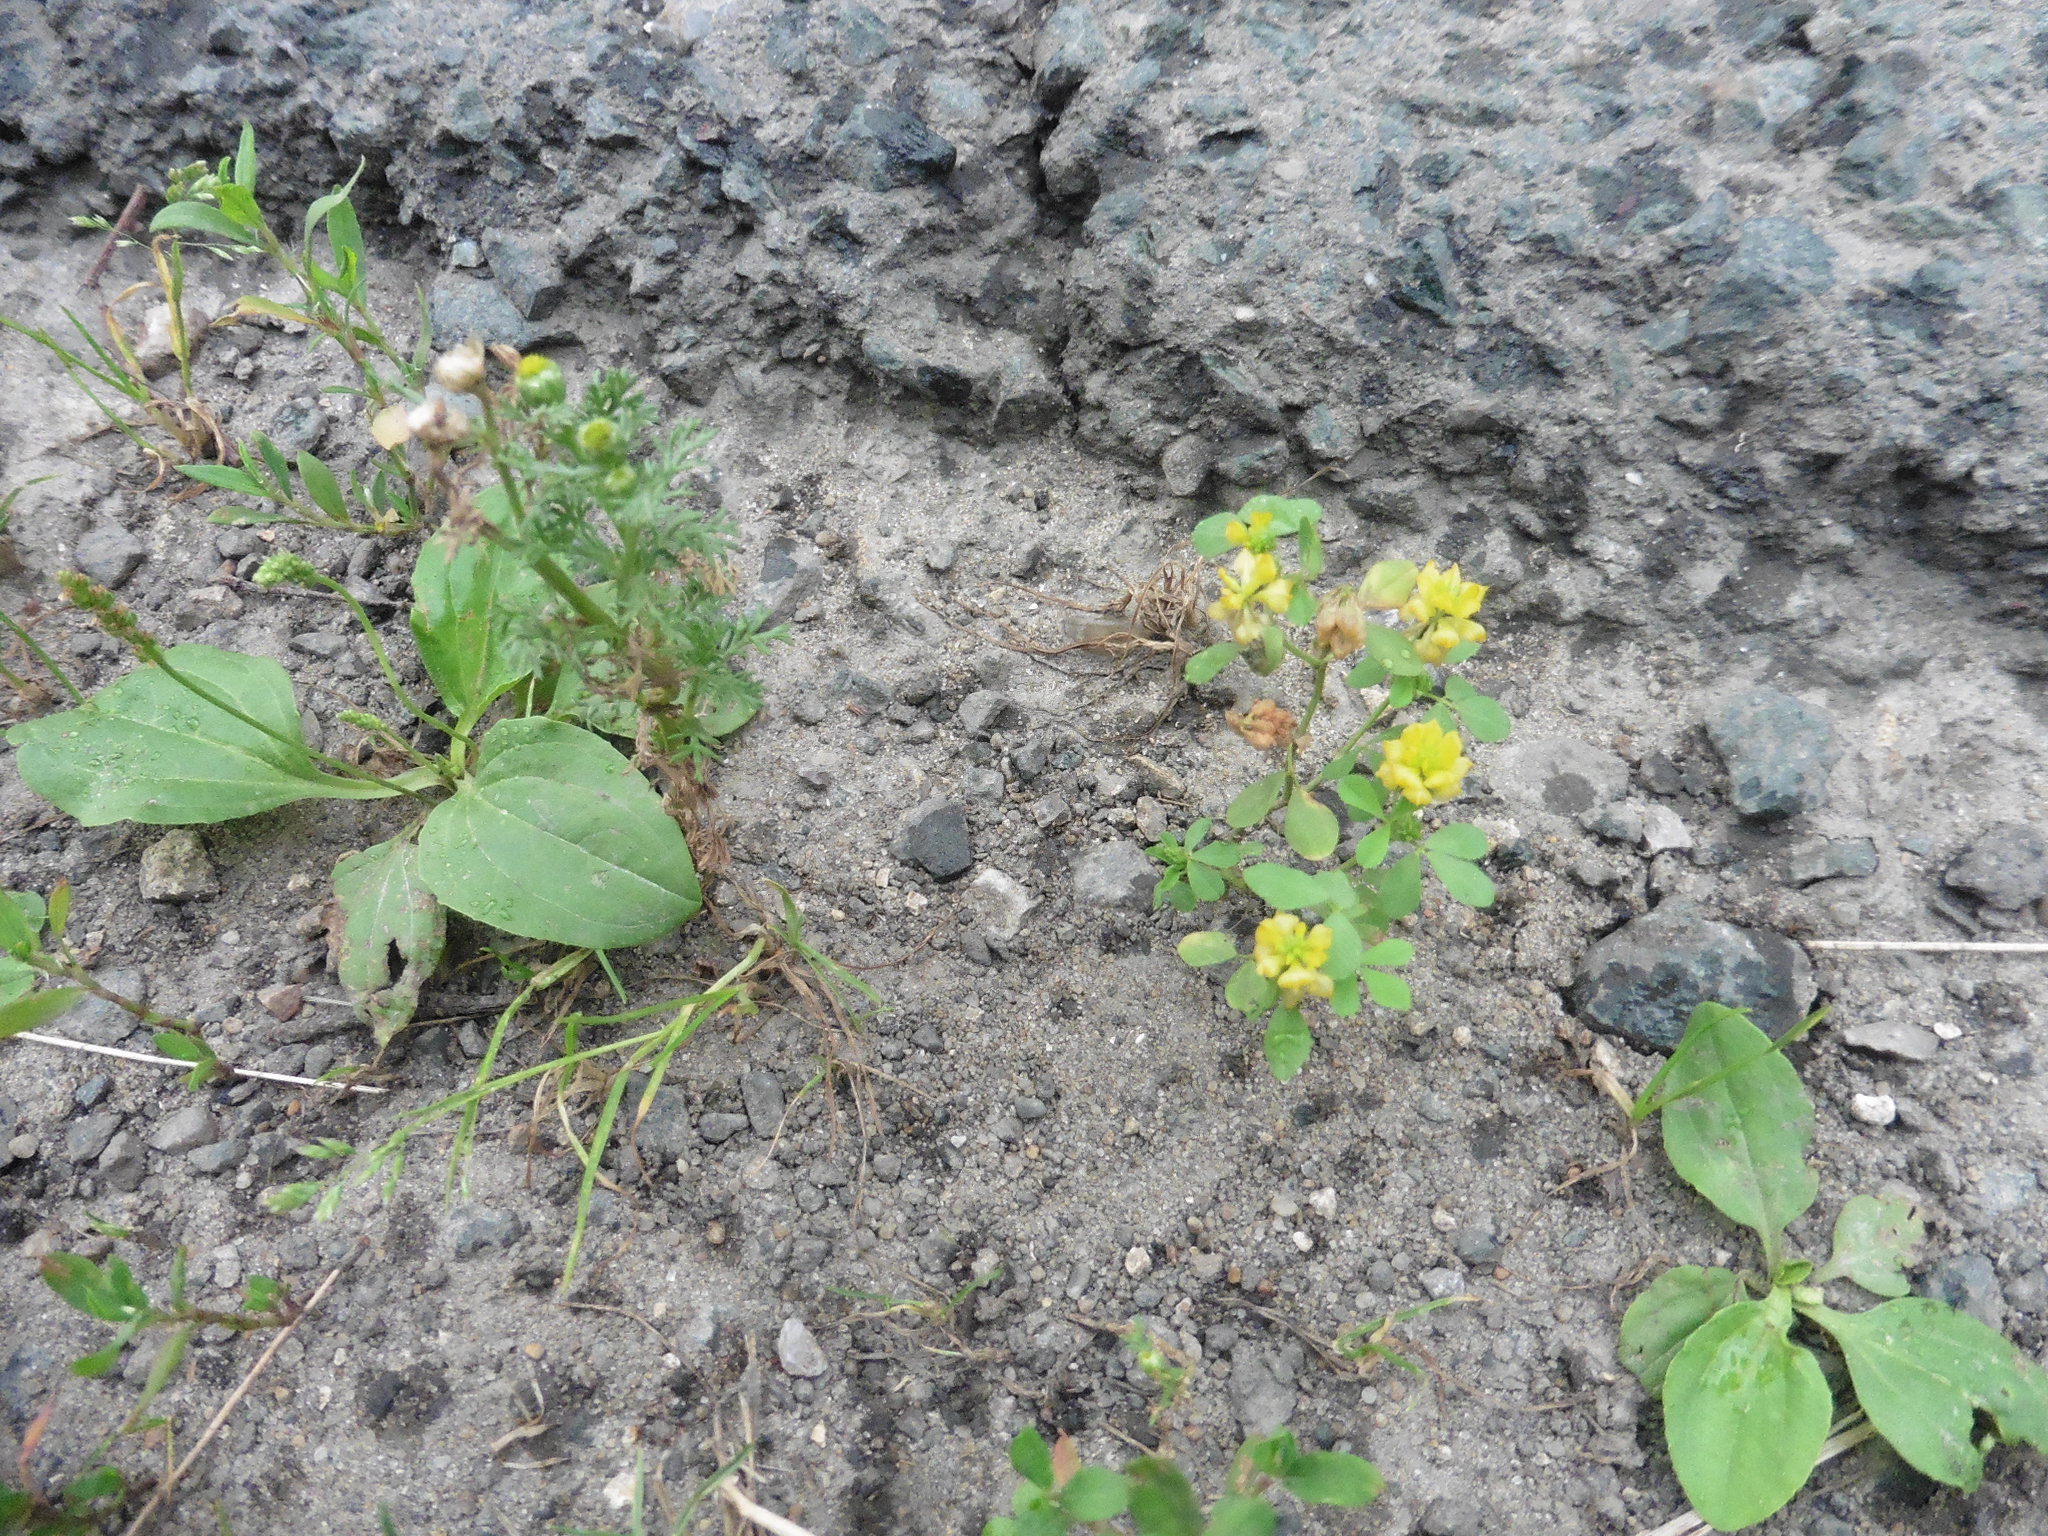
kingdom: Plantae
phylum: Tracheophyta
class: Magnoliopsida
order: Fabales
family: Fabaceae
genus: Trifolium
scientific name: Trifolium campestre
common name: Field clover
